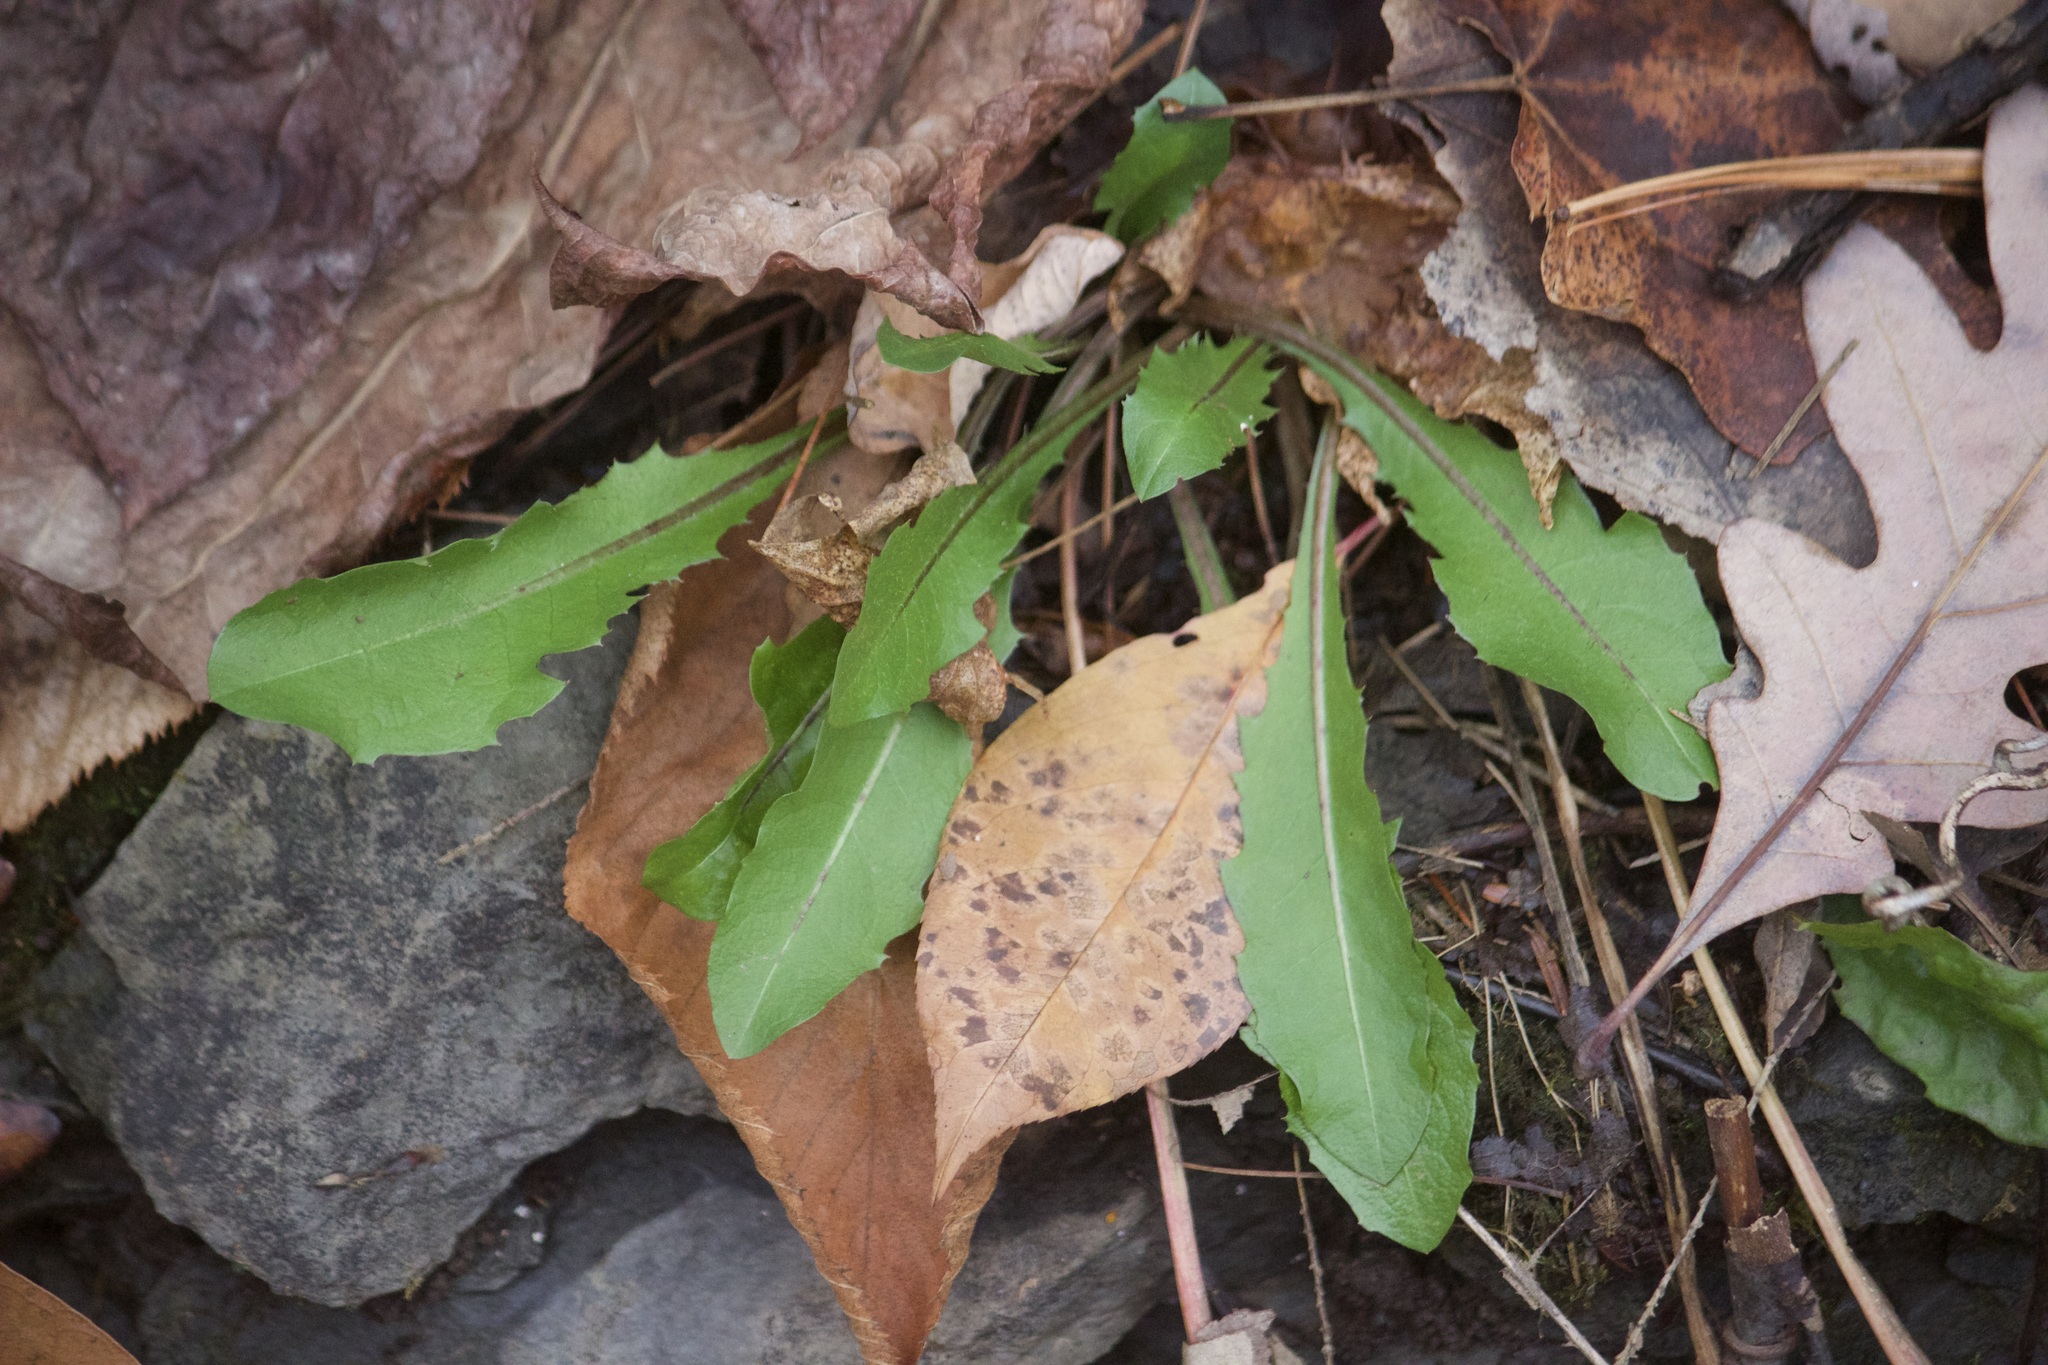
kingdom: Plantae
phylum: Tracheophyta
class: Magnoliopsida
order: Asterales
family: Asteraceae
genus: Taraxacum
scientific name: Taraxacum officinale
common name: Common dandelion
